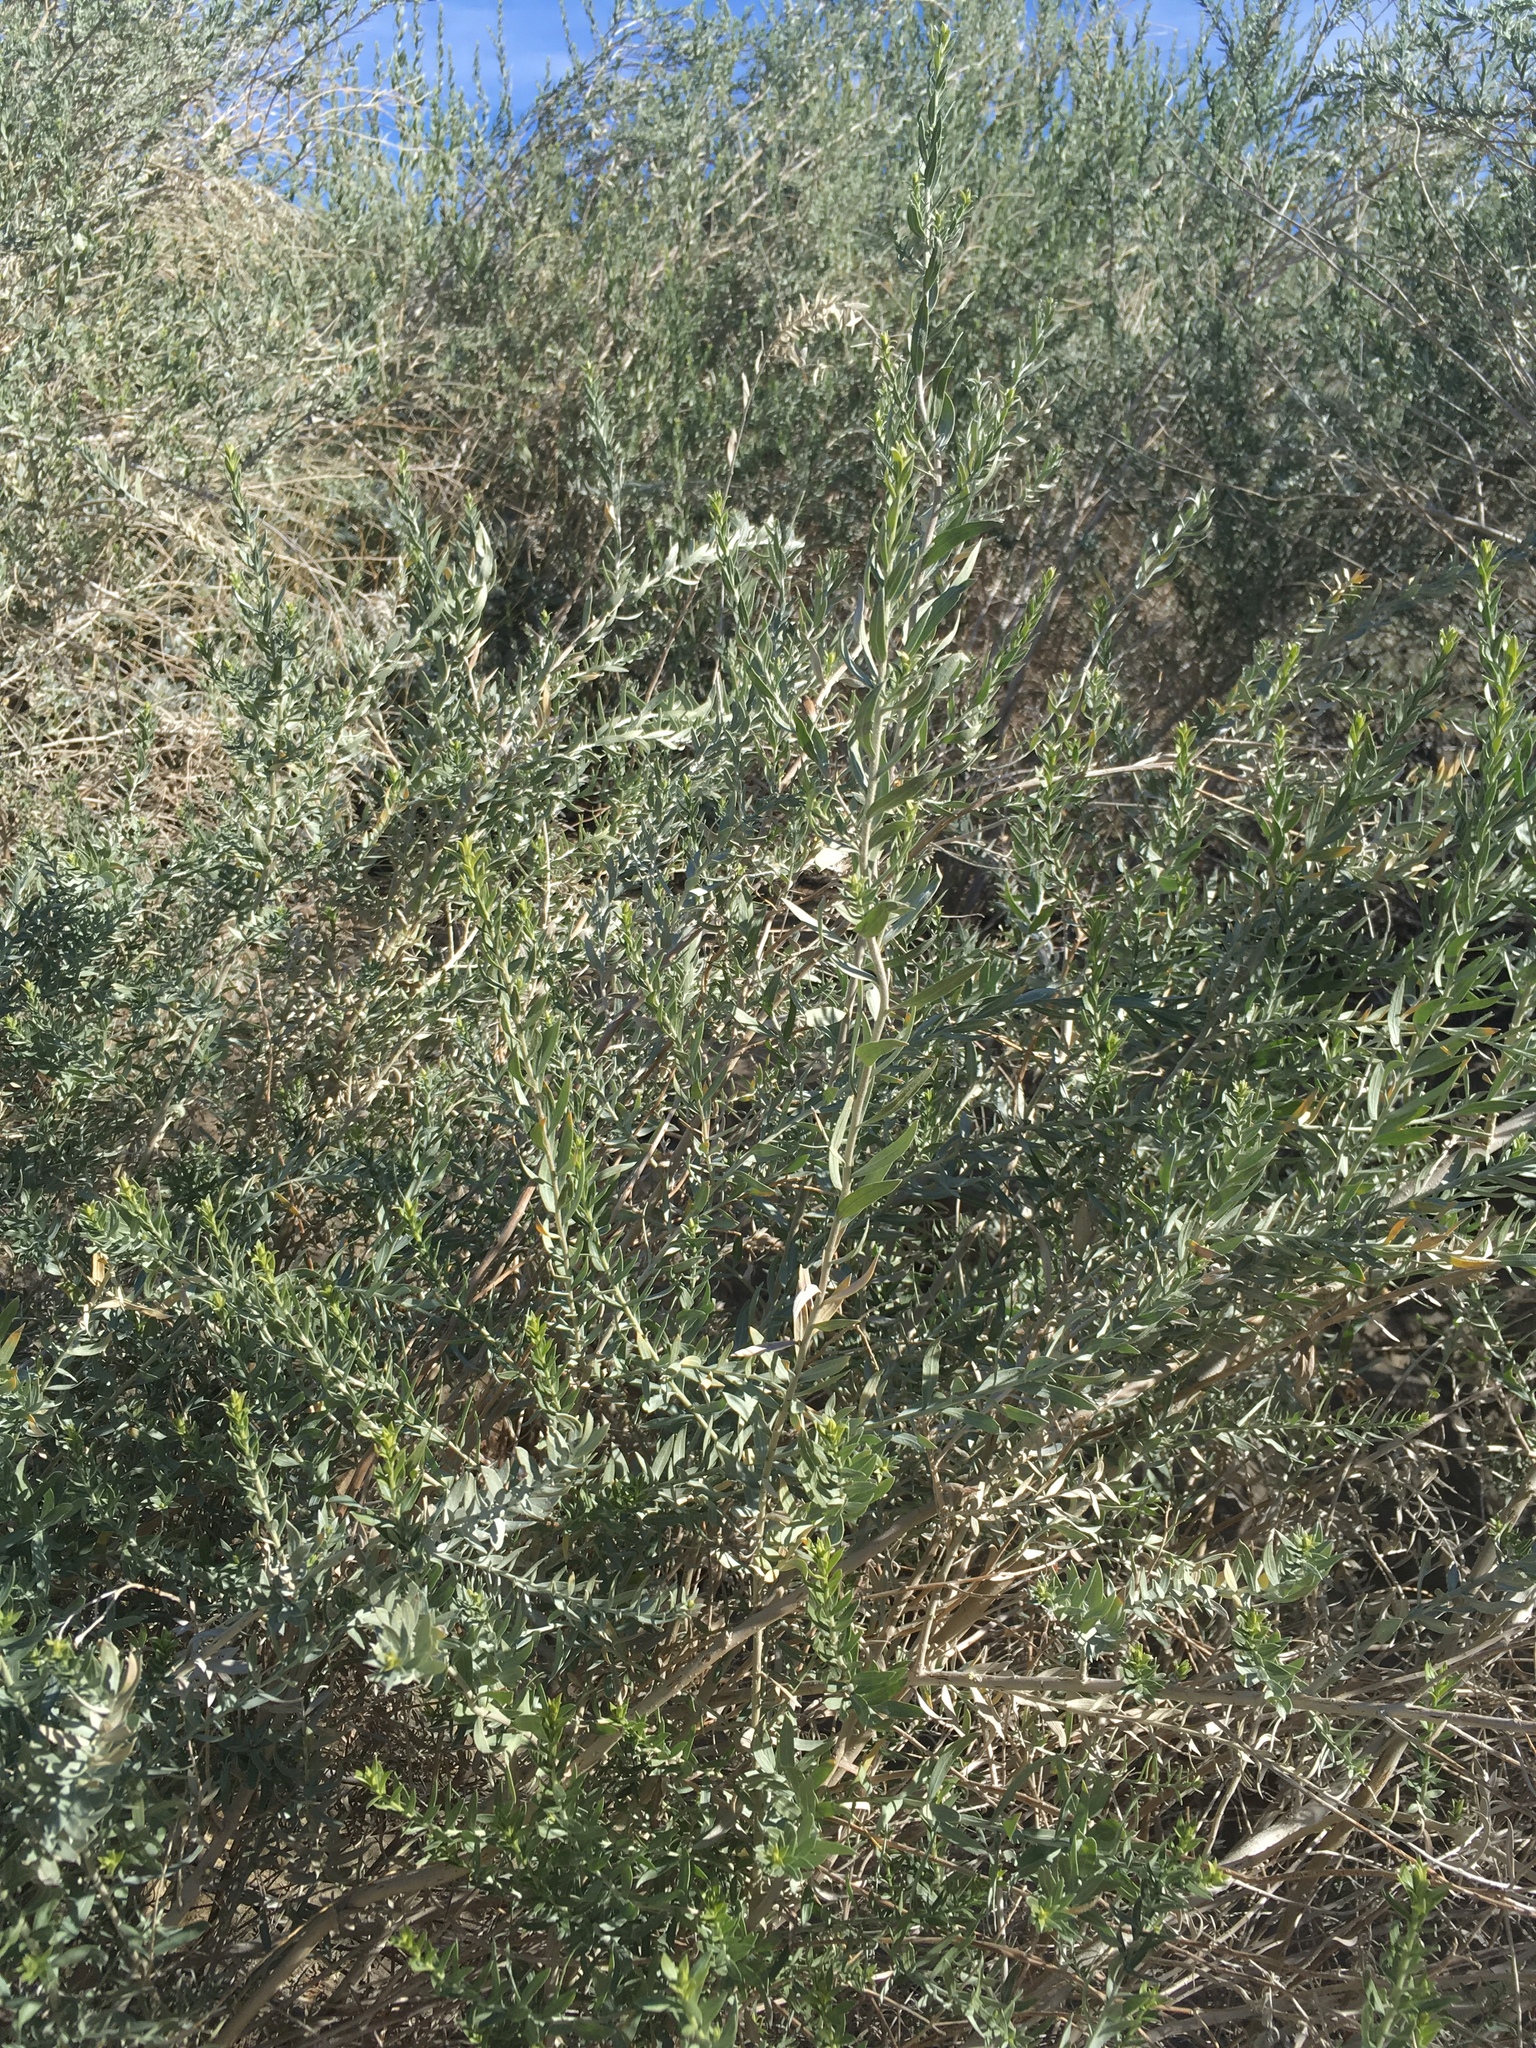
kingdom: Plantae
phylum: Tracheophyta
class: Magnoliopsida
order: Asterales
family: Asteraceae
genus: Pluchea
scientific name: Pluchea sericea
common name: Arrow-weed
